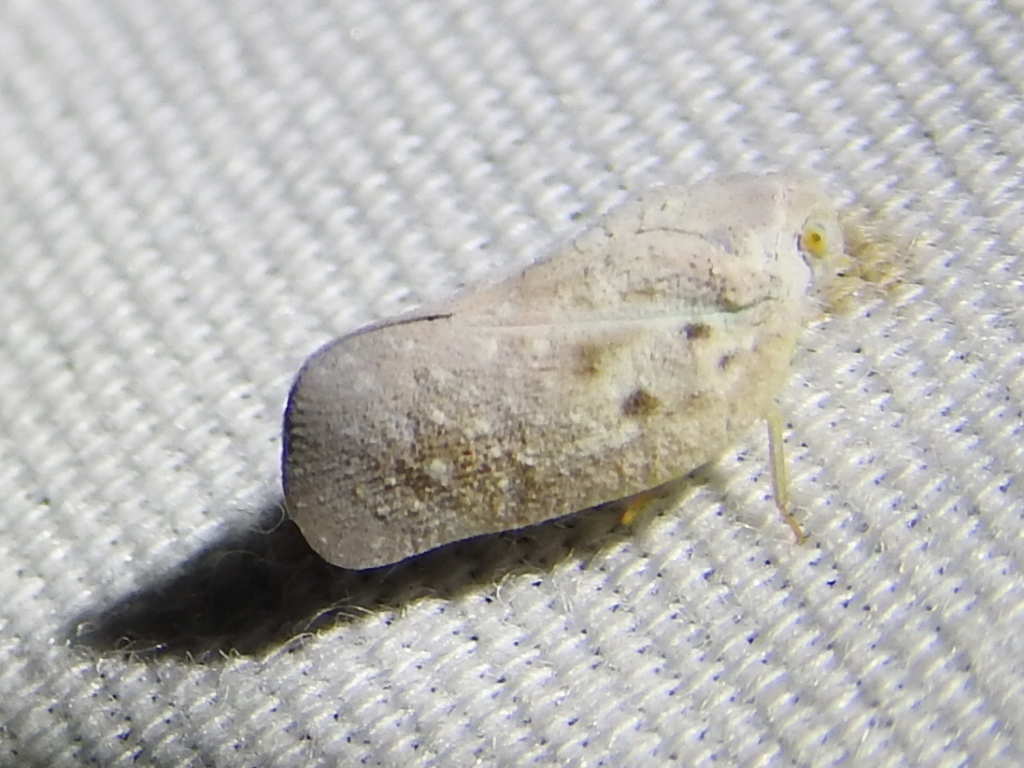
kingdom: Animalia
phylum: Arthropoda
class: Insecta
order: Hemiptera
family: Flatidae
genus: Metcalfa
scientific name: Metcalfa pruinosa
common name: Citrus flatid planthopper
